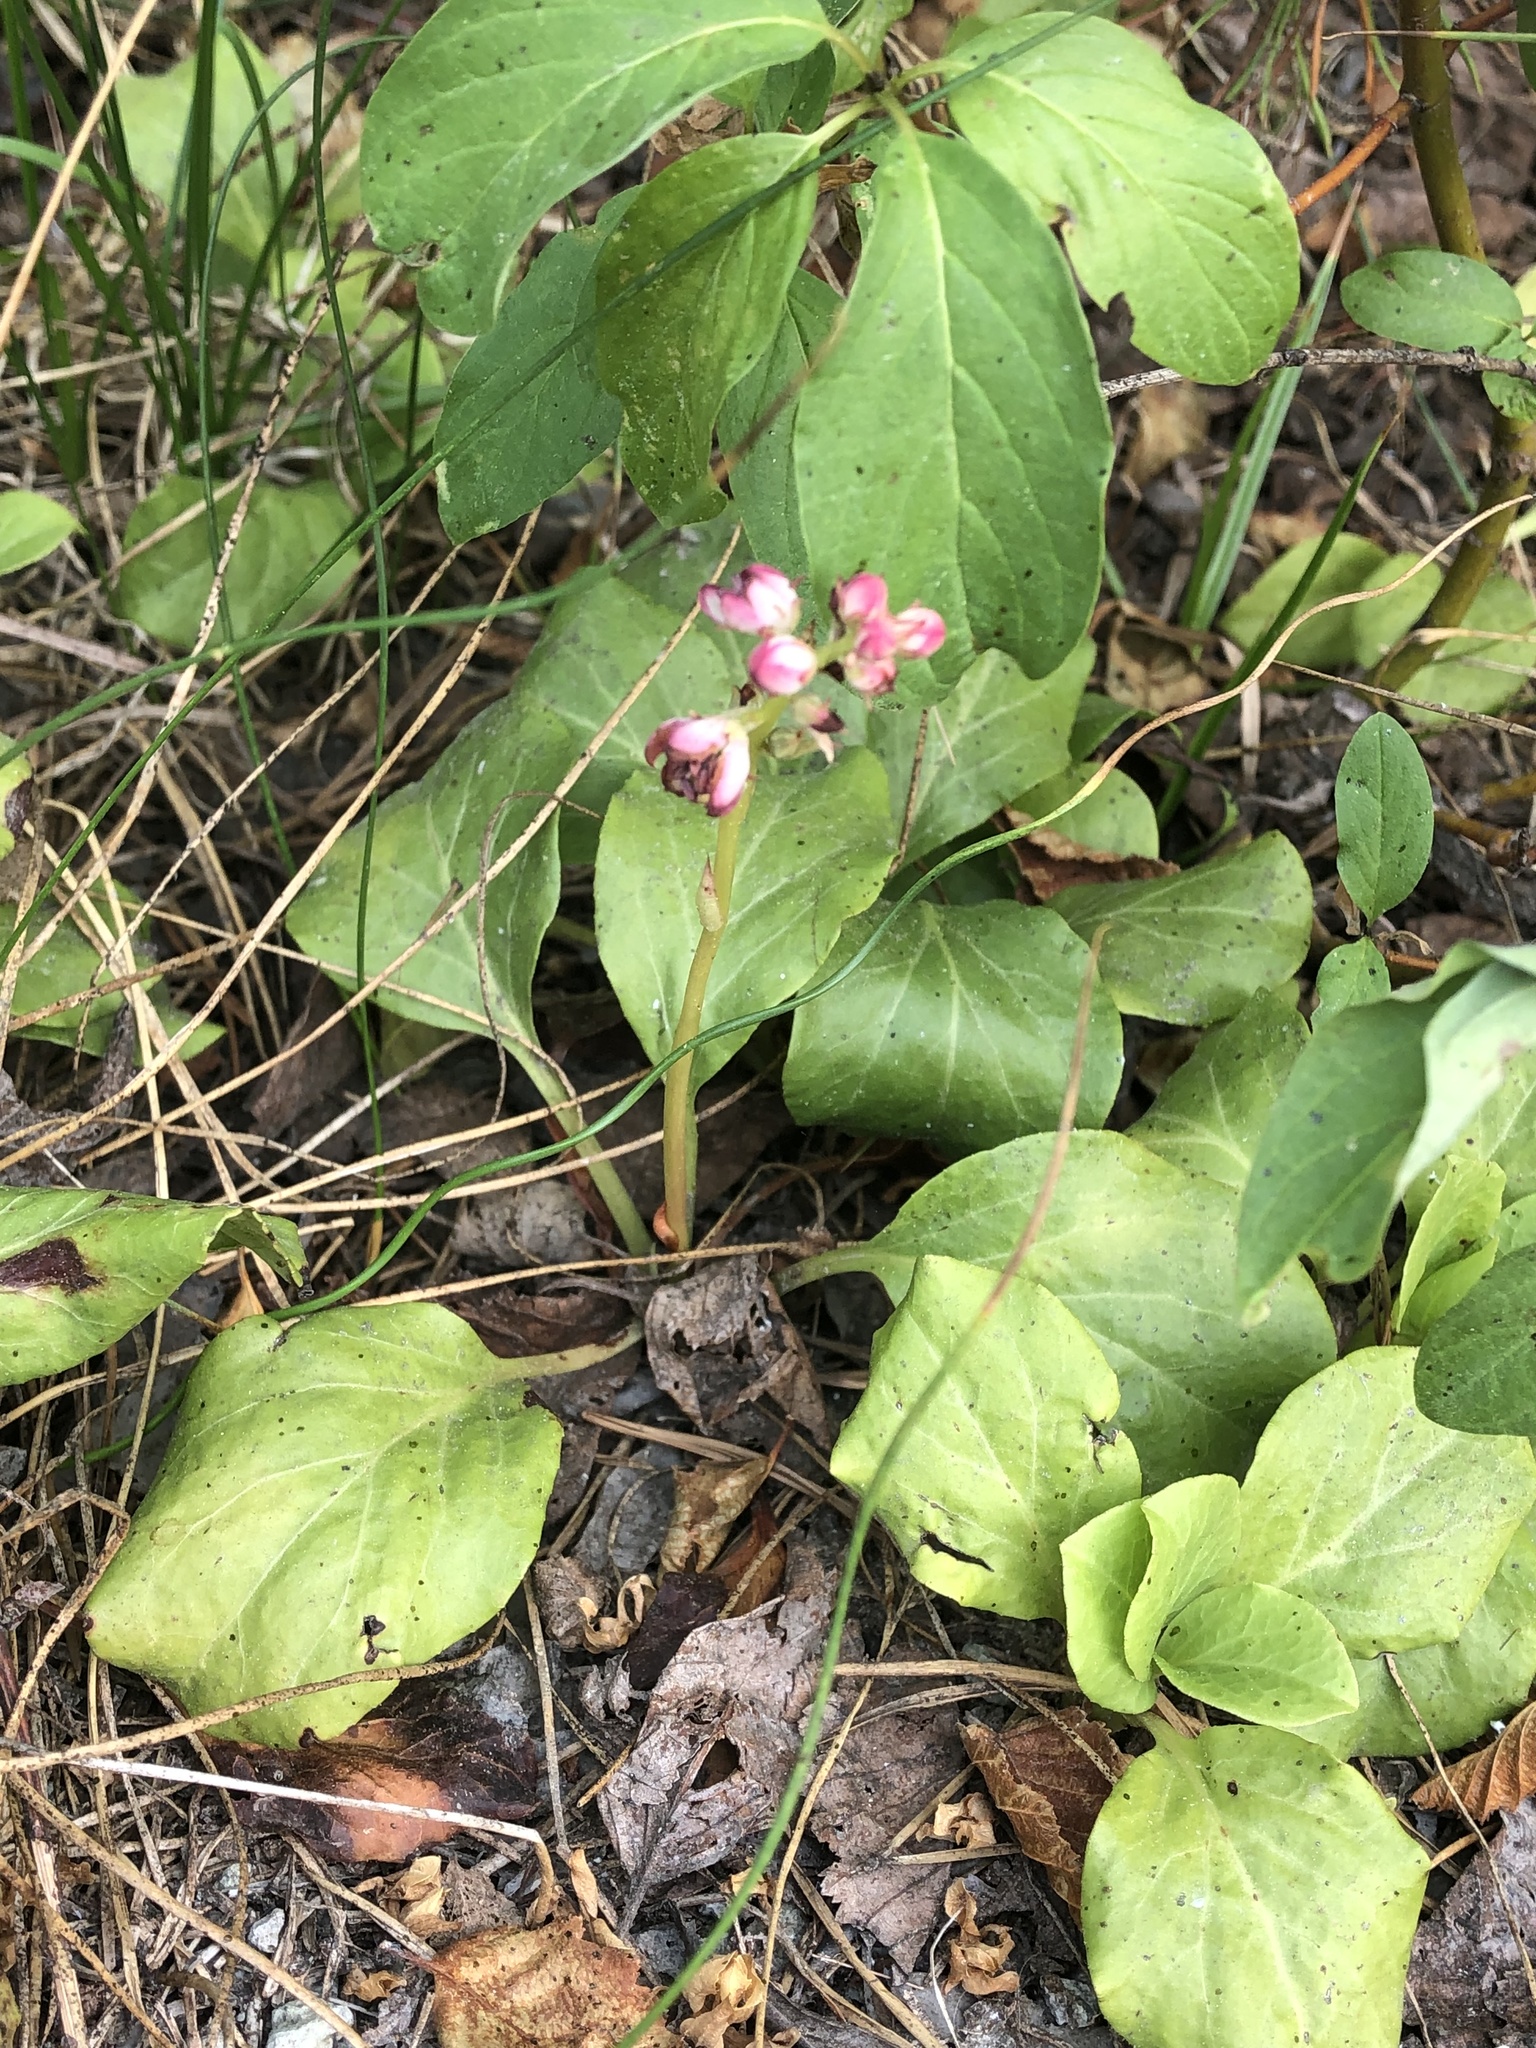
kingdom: Plantae
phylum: Tracheophyta
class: Magnoliopsida
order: Ericales
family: Ericaceae
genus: Pyrola
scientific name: Pyrola asarifolia
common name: Bog wintergreen
